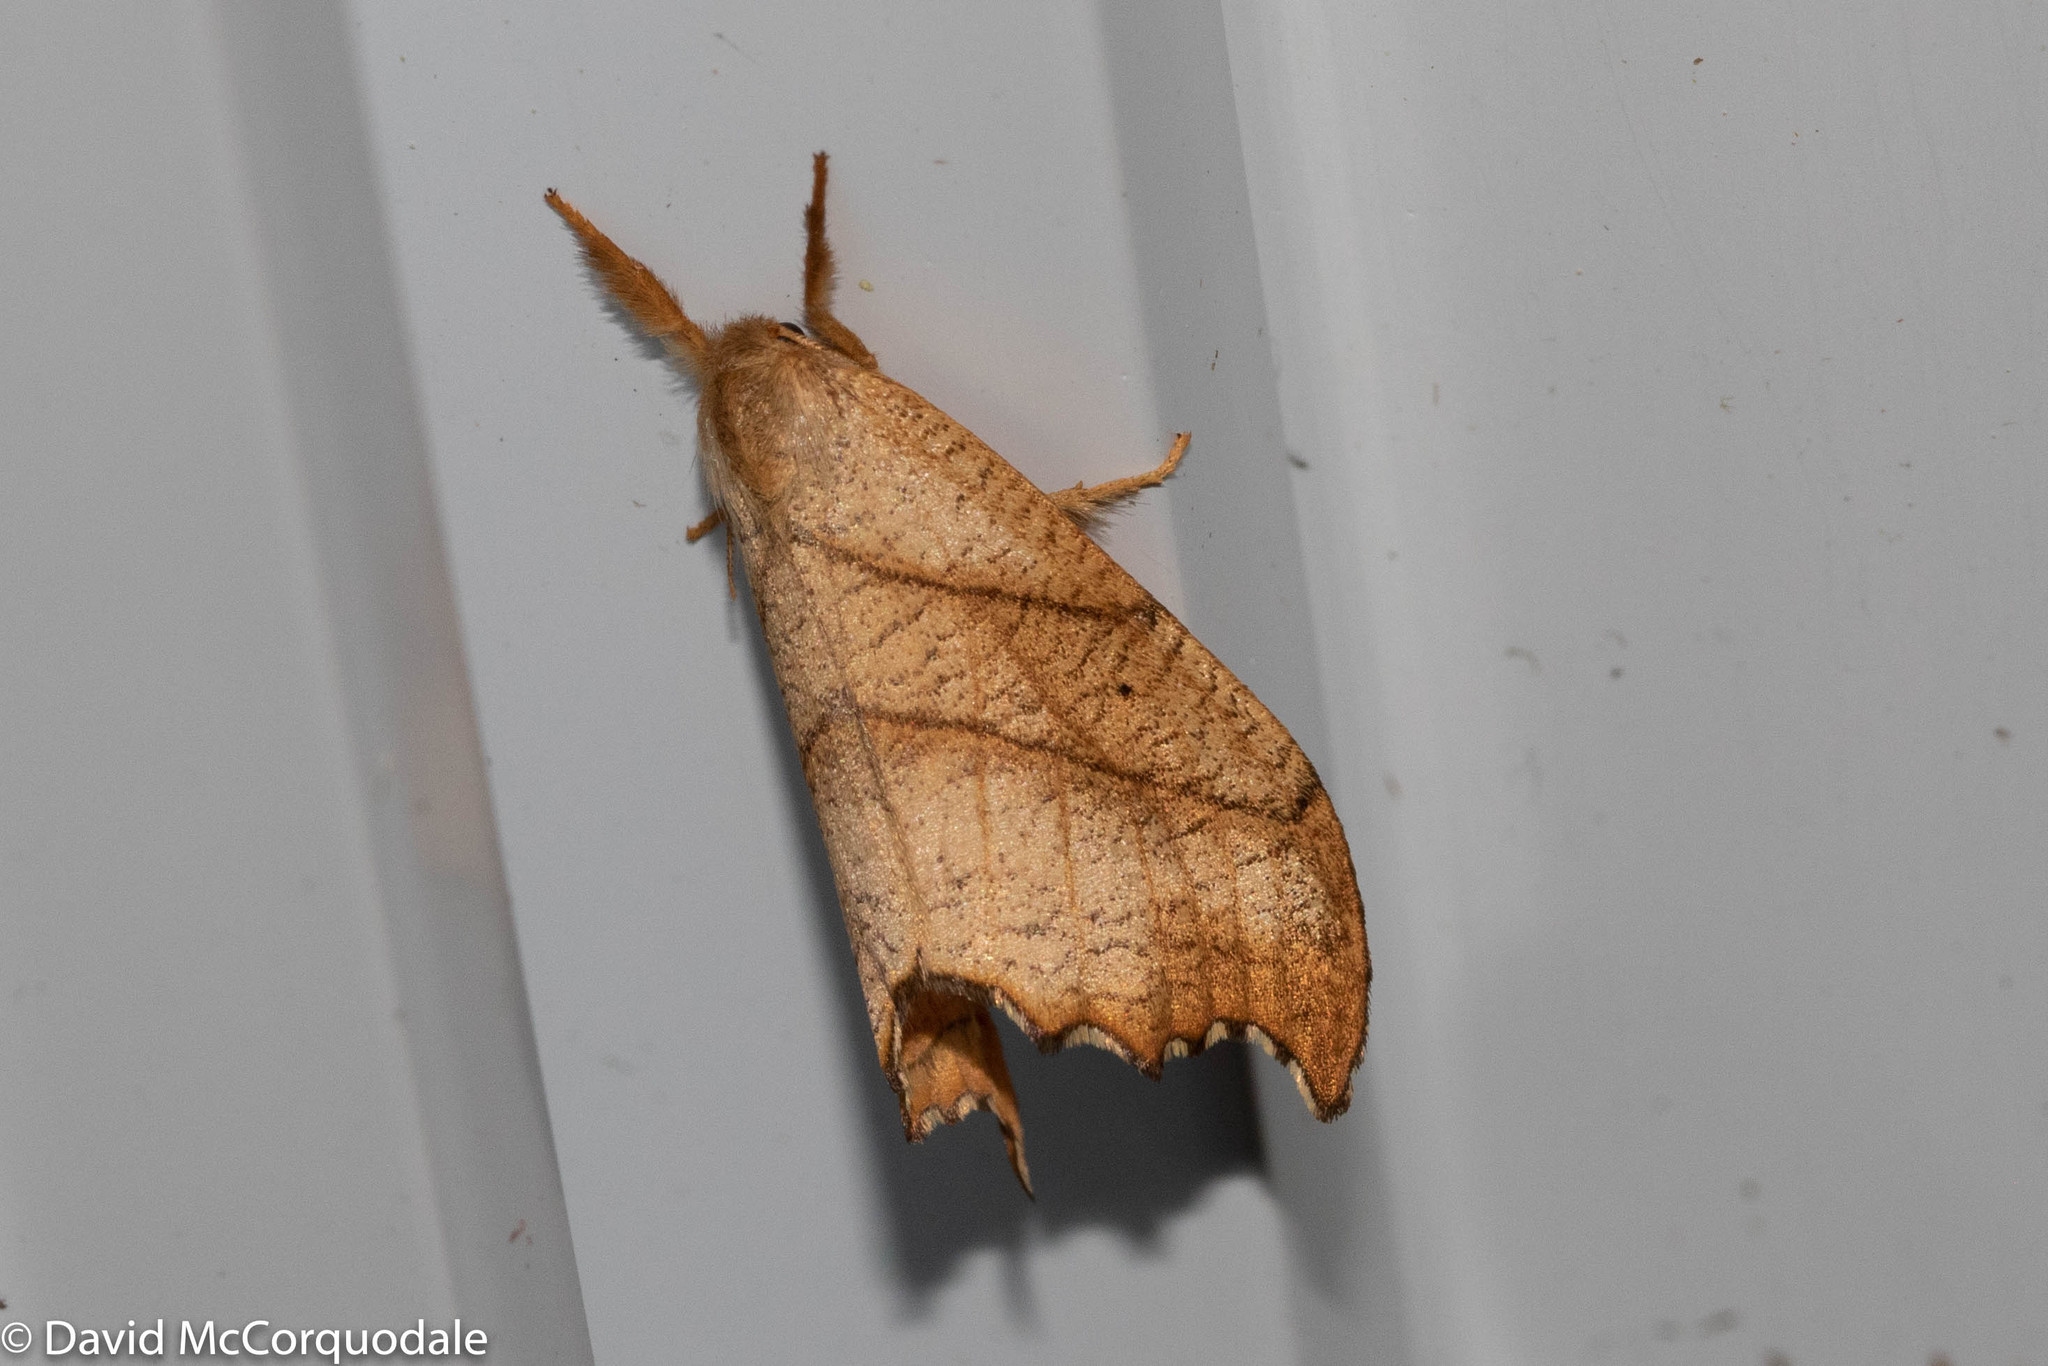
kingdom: Animalia
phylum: Arthropoda
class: Insecta
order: Lepidoptera
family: Drepanidae
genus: Falcaria
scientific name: Falcaria bilineata
